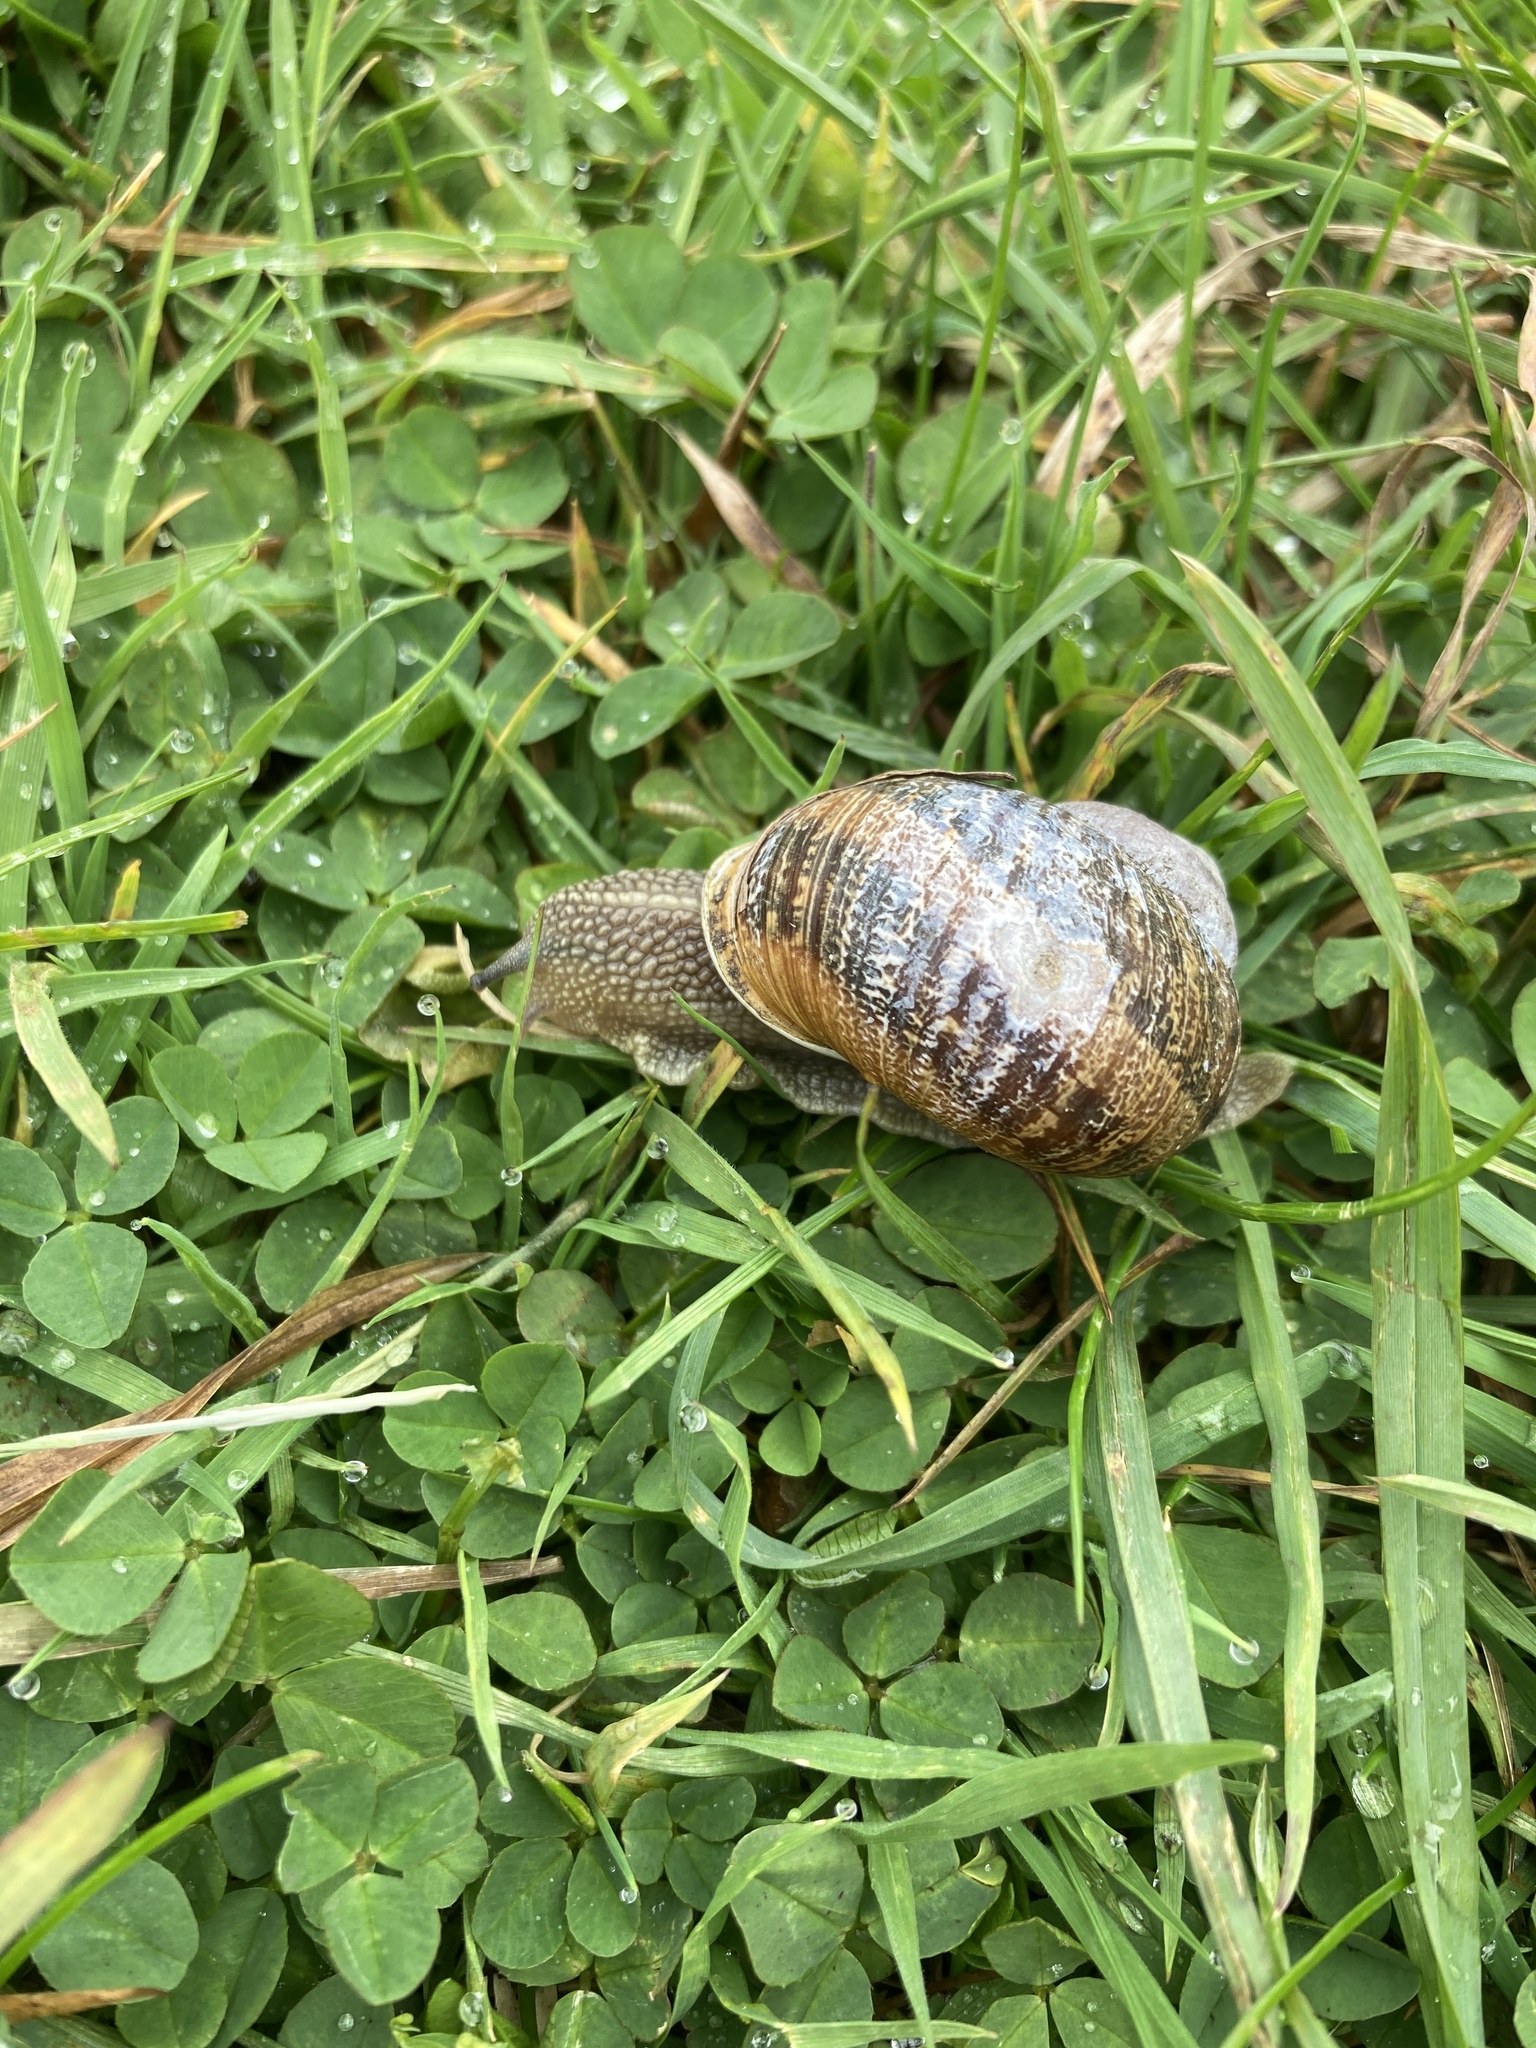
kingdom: Animalia
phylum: Mollusca
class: Gastropoda
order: Stylommatophora
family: Helicidae
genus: Cornu
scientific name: Cornu aspersum
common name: Brown garden snail
